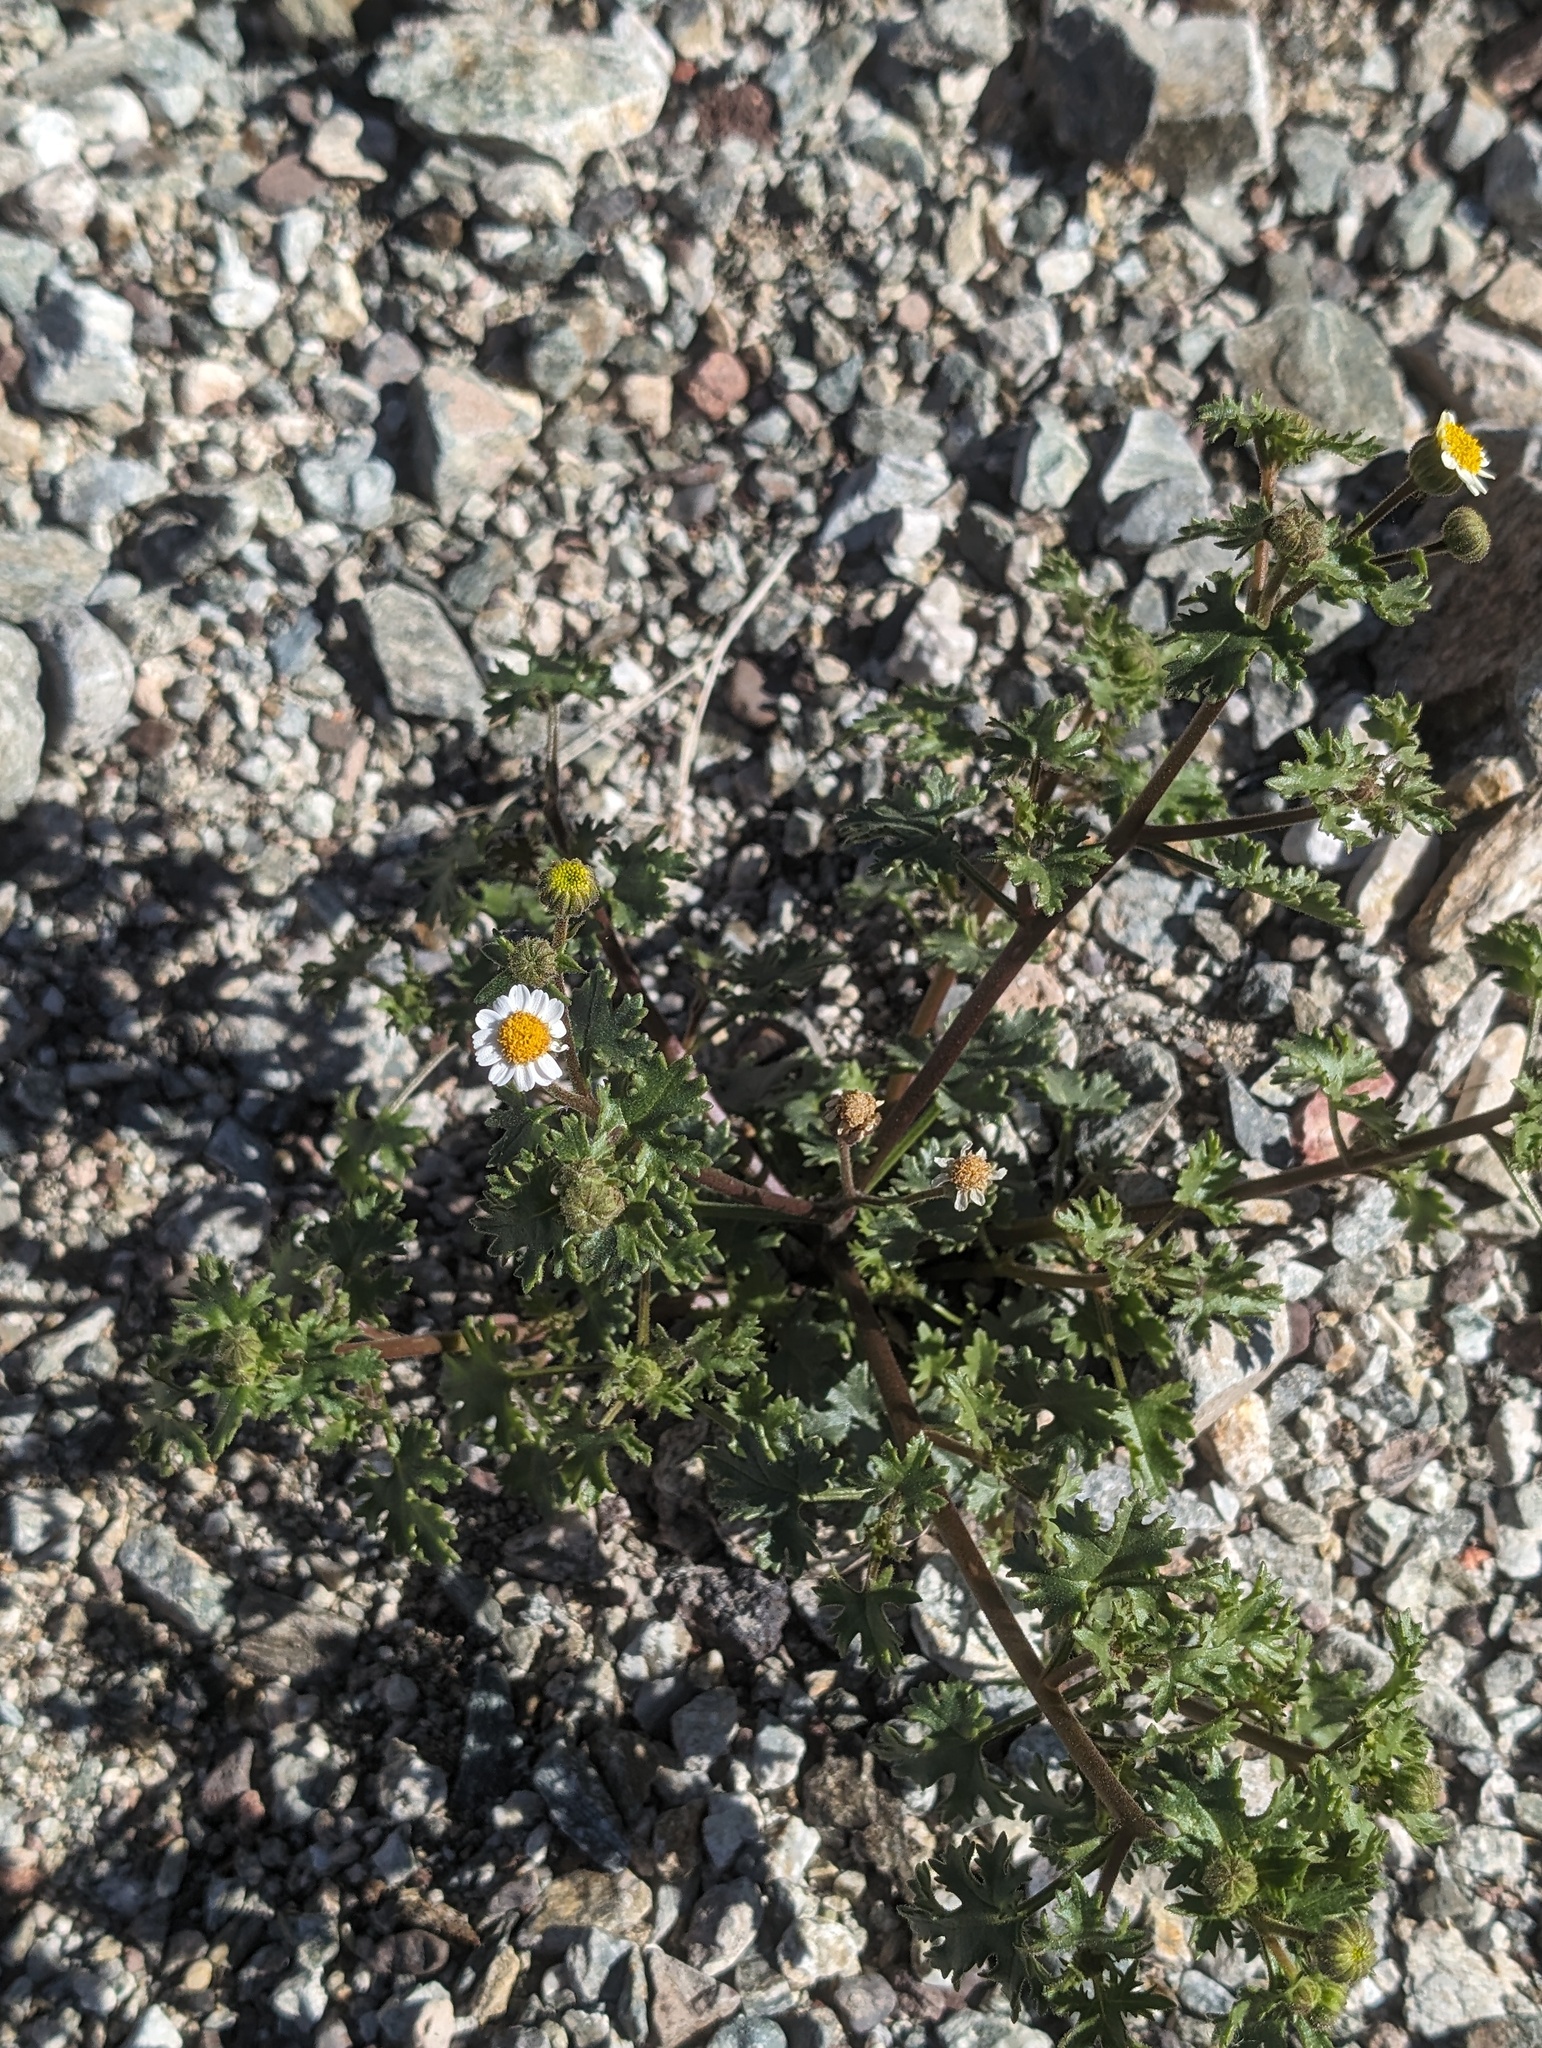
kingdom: Plantae
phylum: Tracheophyta
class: Magnoliopsida
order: Asterales
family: Asteraceae
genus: Laphamia
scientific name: Laphamia emoryi
